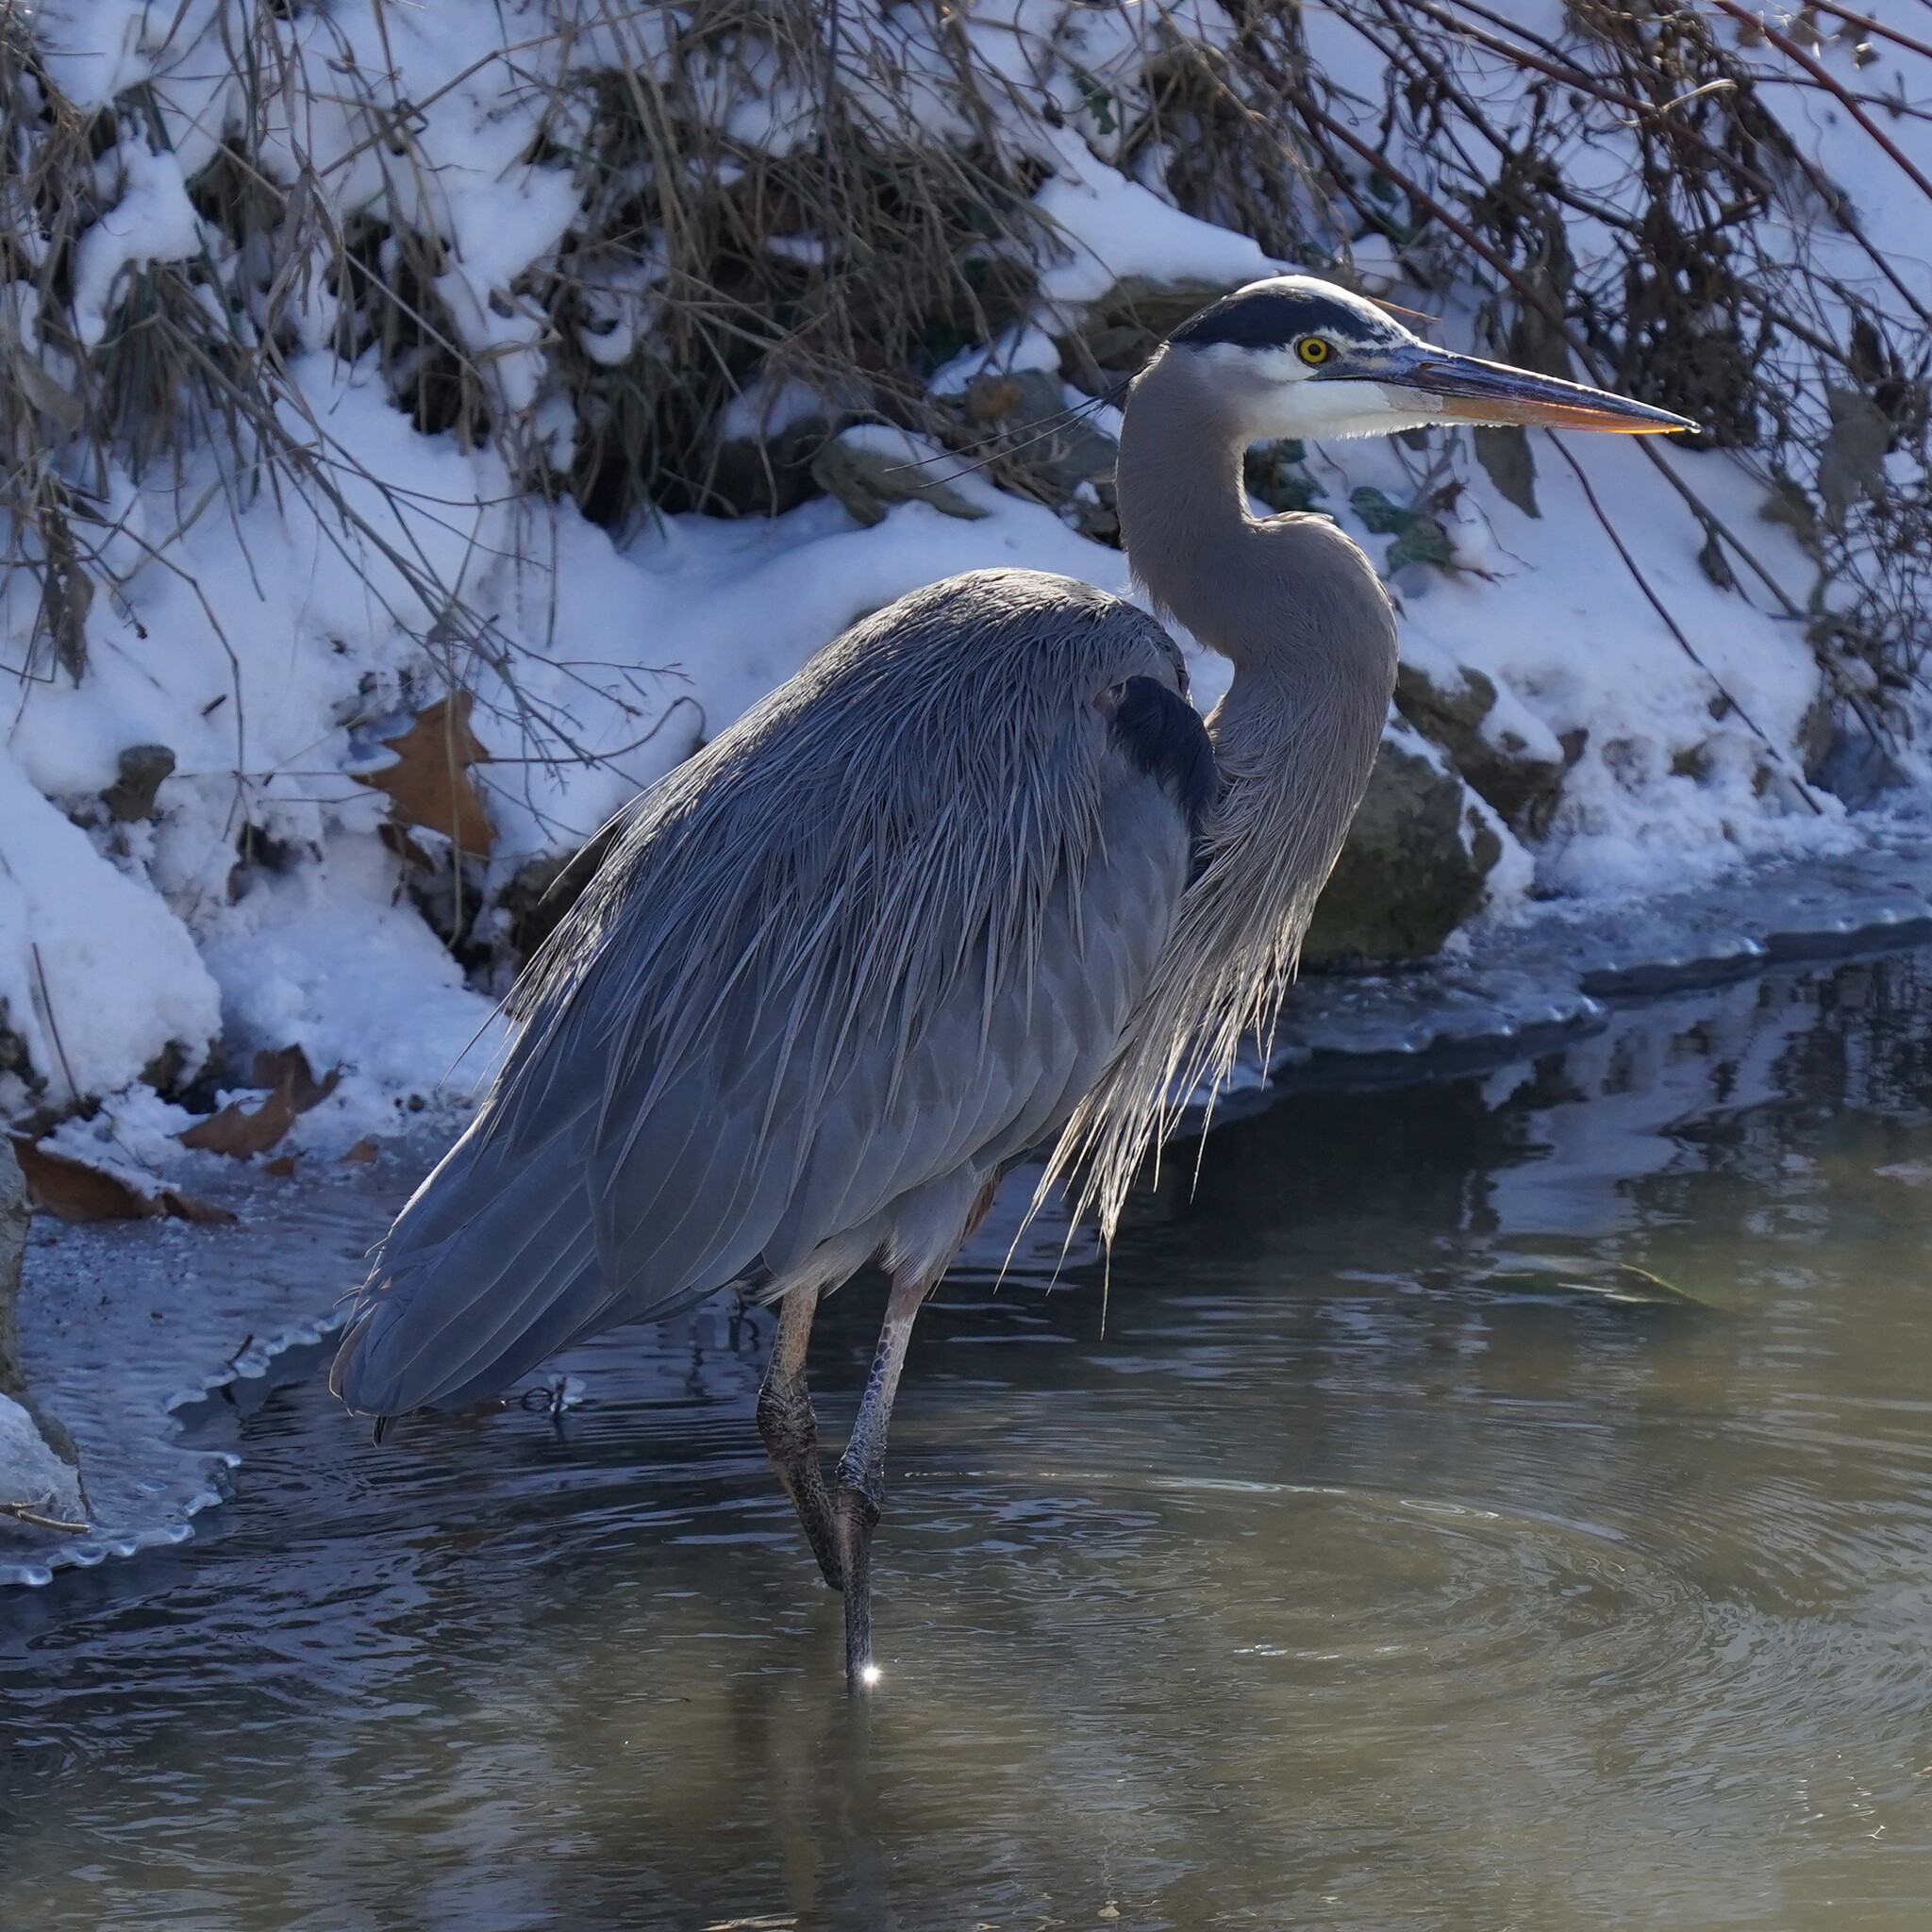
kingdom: Animalia
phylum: Chordata
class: Aves
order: Pelecaniformes
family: Ardeidae
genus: Ardea
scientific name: Ardea herodias
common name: Great blue heron
